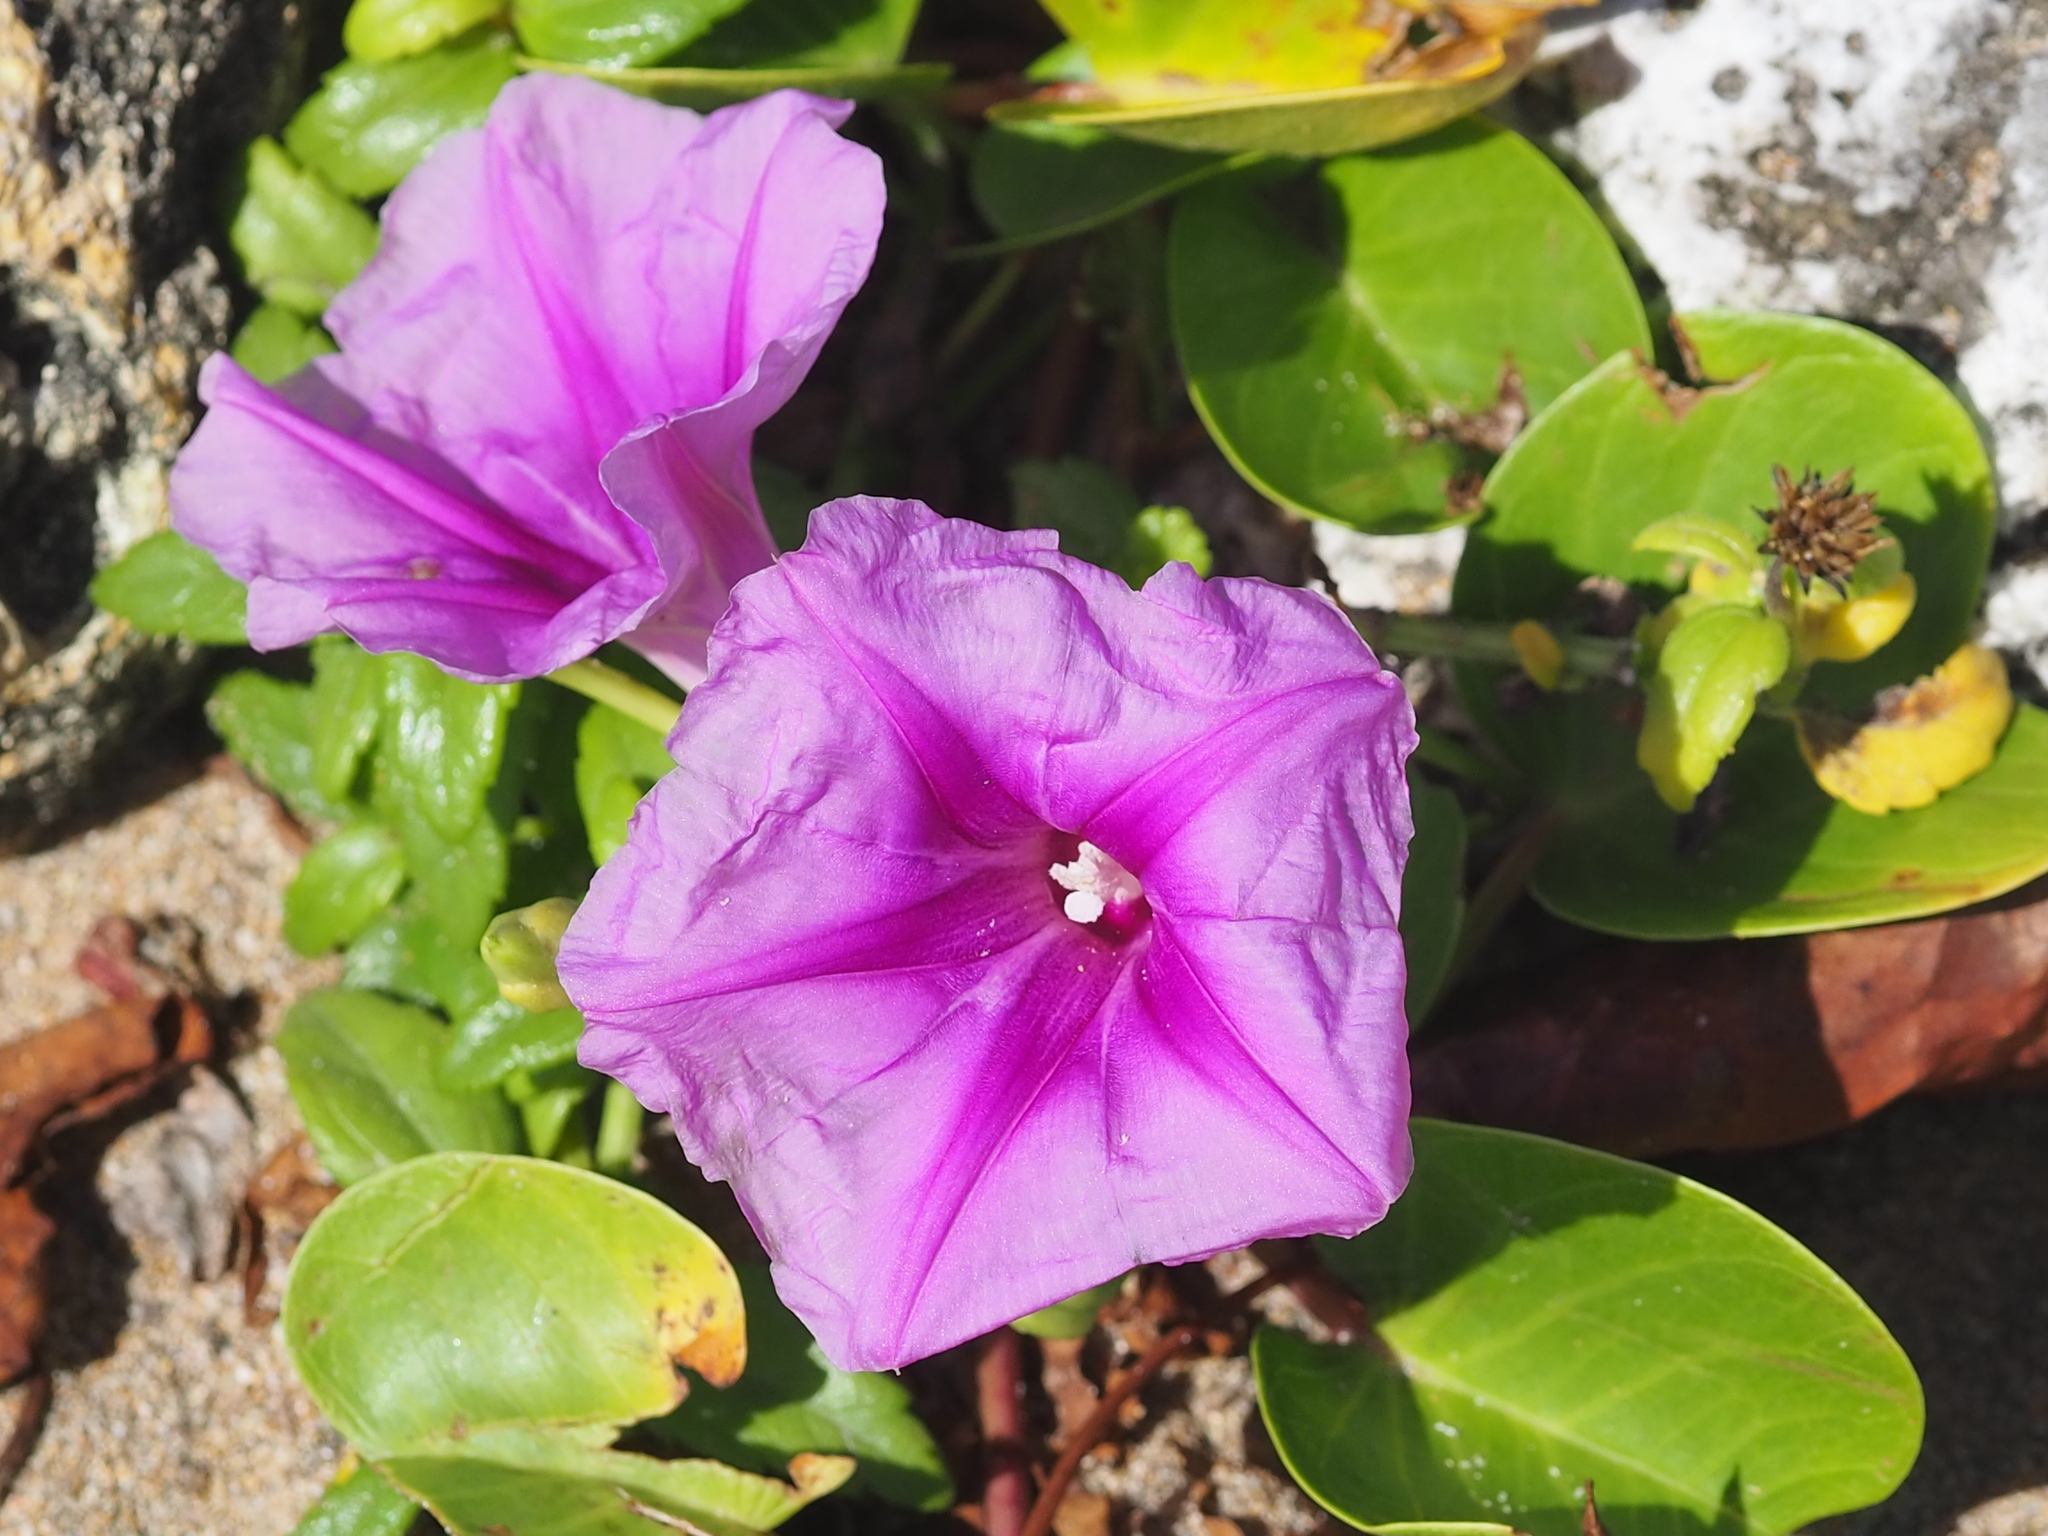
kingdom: Plantae
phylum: Tracheophyta
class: Magnoliopsida
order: Solanales
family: Convolvulaceae
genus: Ipomoea
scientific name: Ipomoea pes-caprae
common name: Beach morning glory
